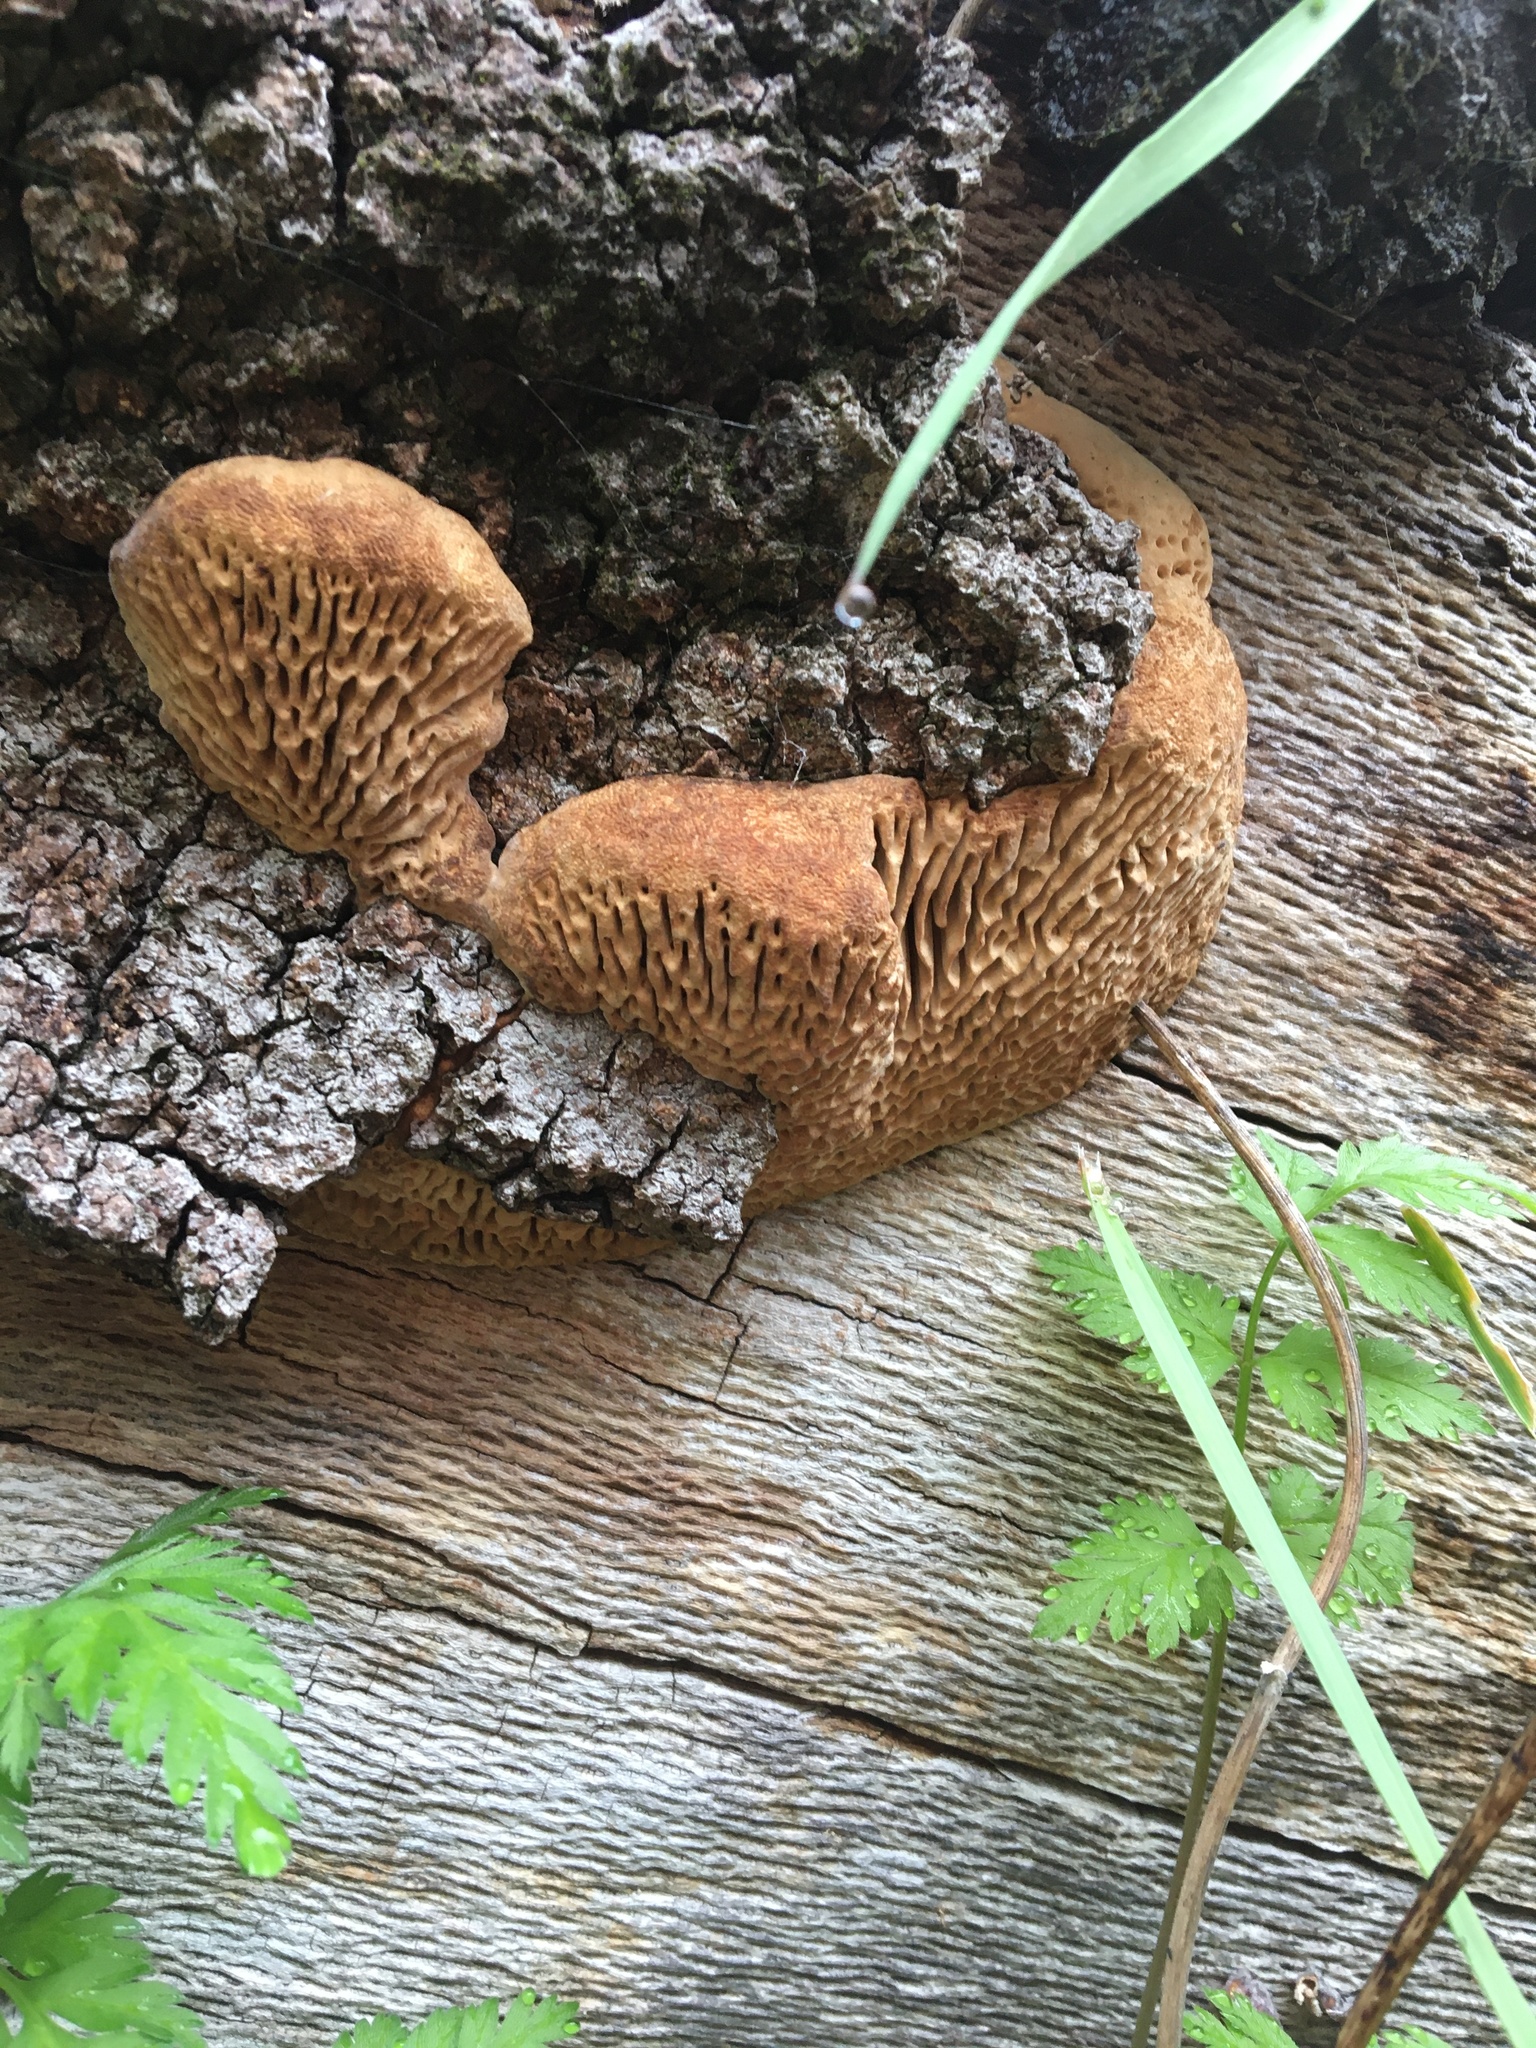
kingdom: Fungi
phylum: Basidiomycota
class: Agaricomycetes
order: Polyporales
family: Fomitopsidaceae
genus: Fomitopsis
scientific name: Fomitopsis
